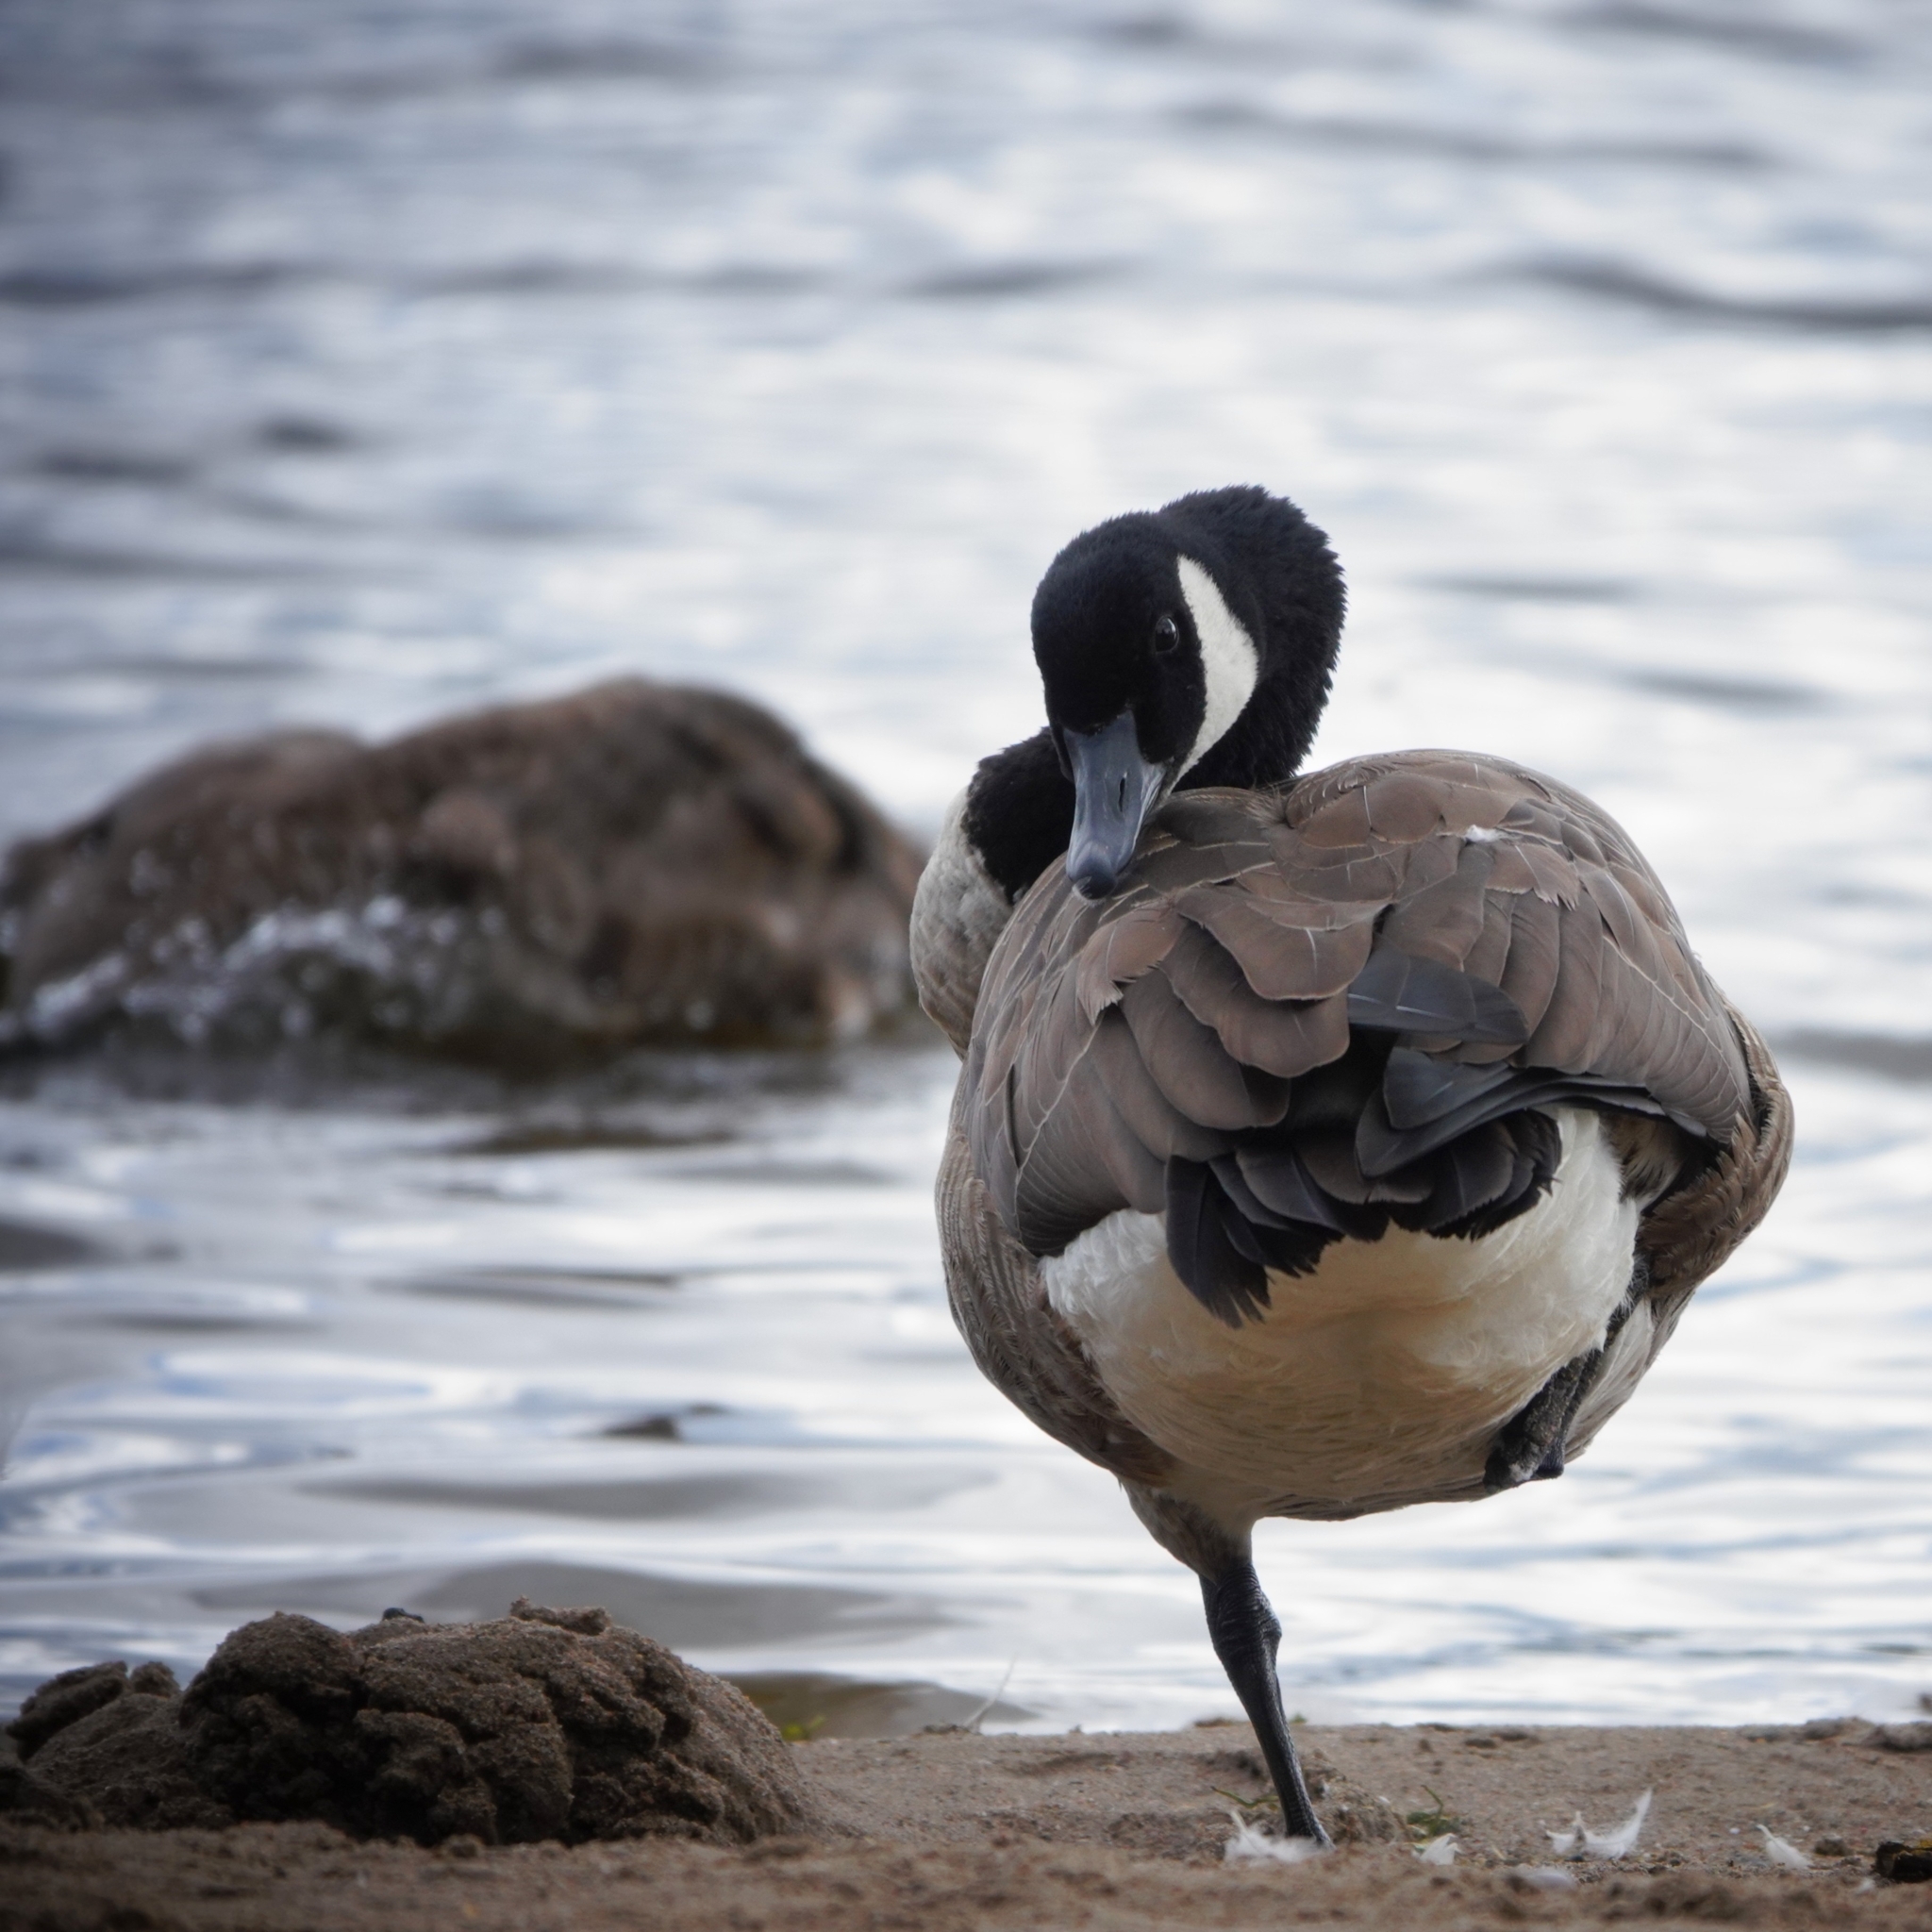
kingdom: Animalia
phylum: Chordata
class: Aves
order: Anseriformes
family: Anatidae
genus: Branta
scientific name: Branta canadensis
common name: Canada goose
